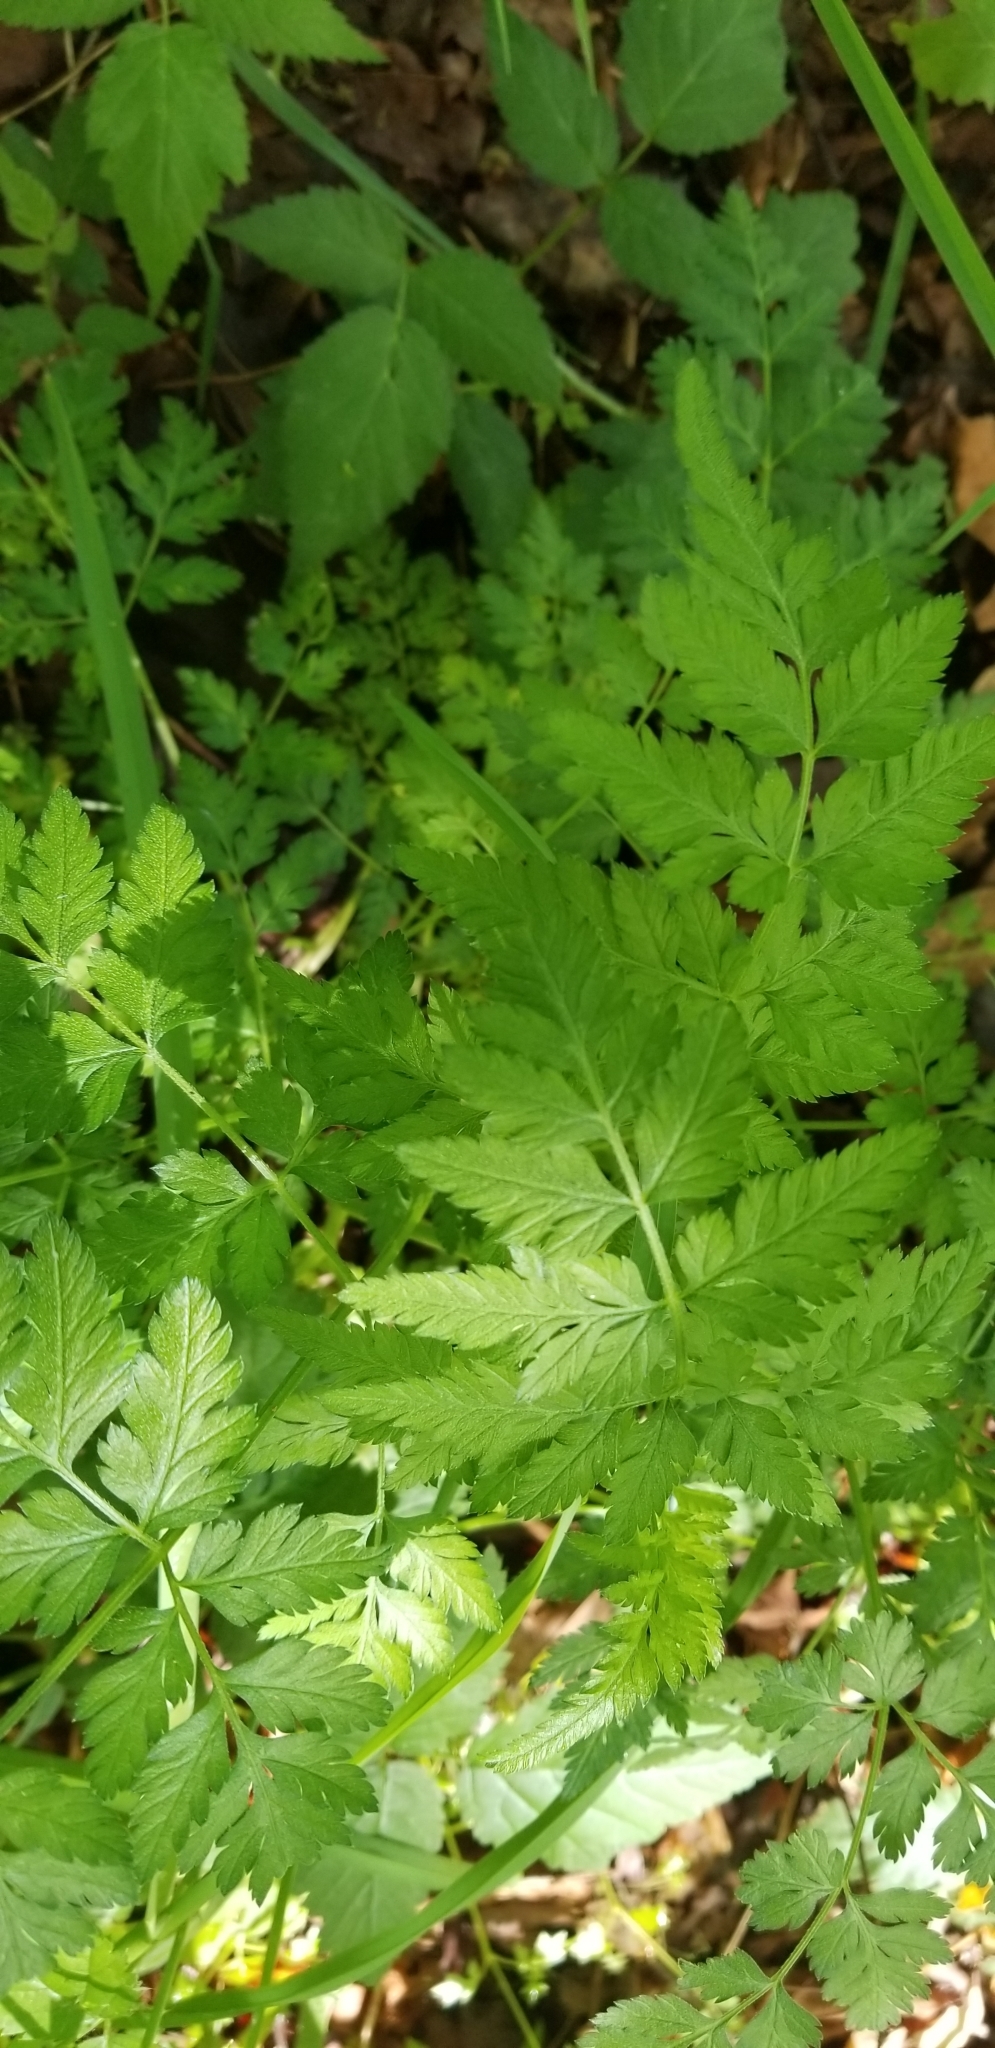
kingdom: Plantae
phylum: Tracheophyta
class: Magnoliopsida
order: Apiales
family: Apiaceae
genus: Torilis
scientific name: Torilis japonica
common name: Upright hedge-parsley
